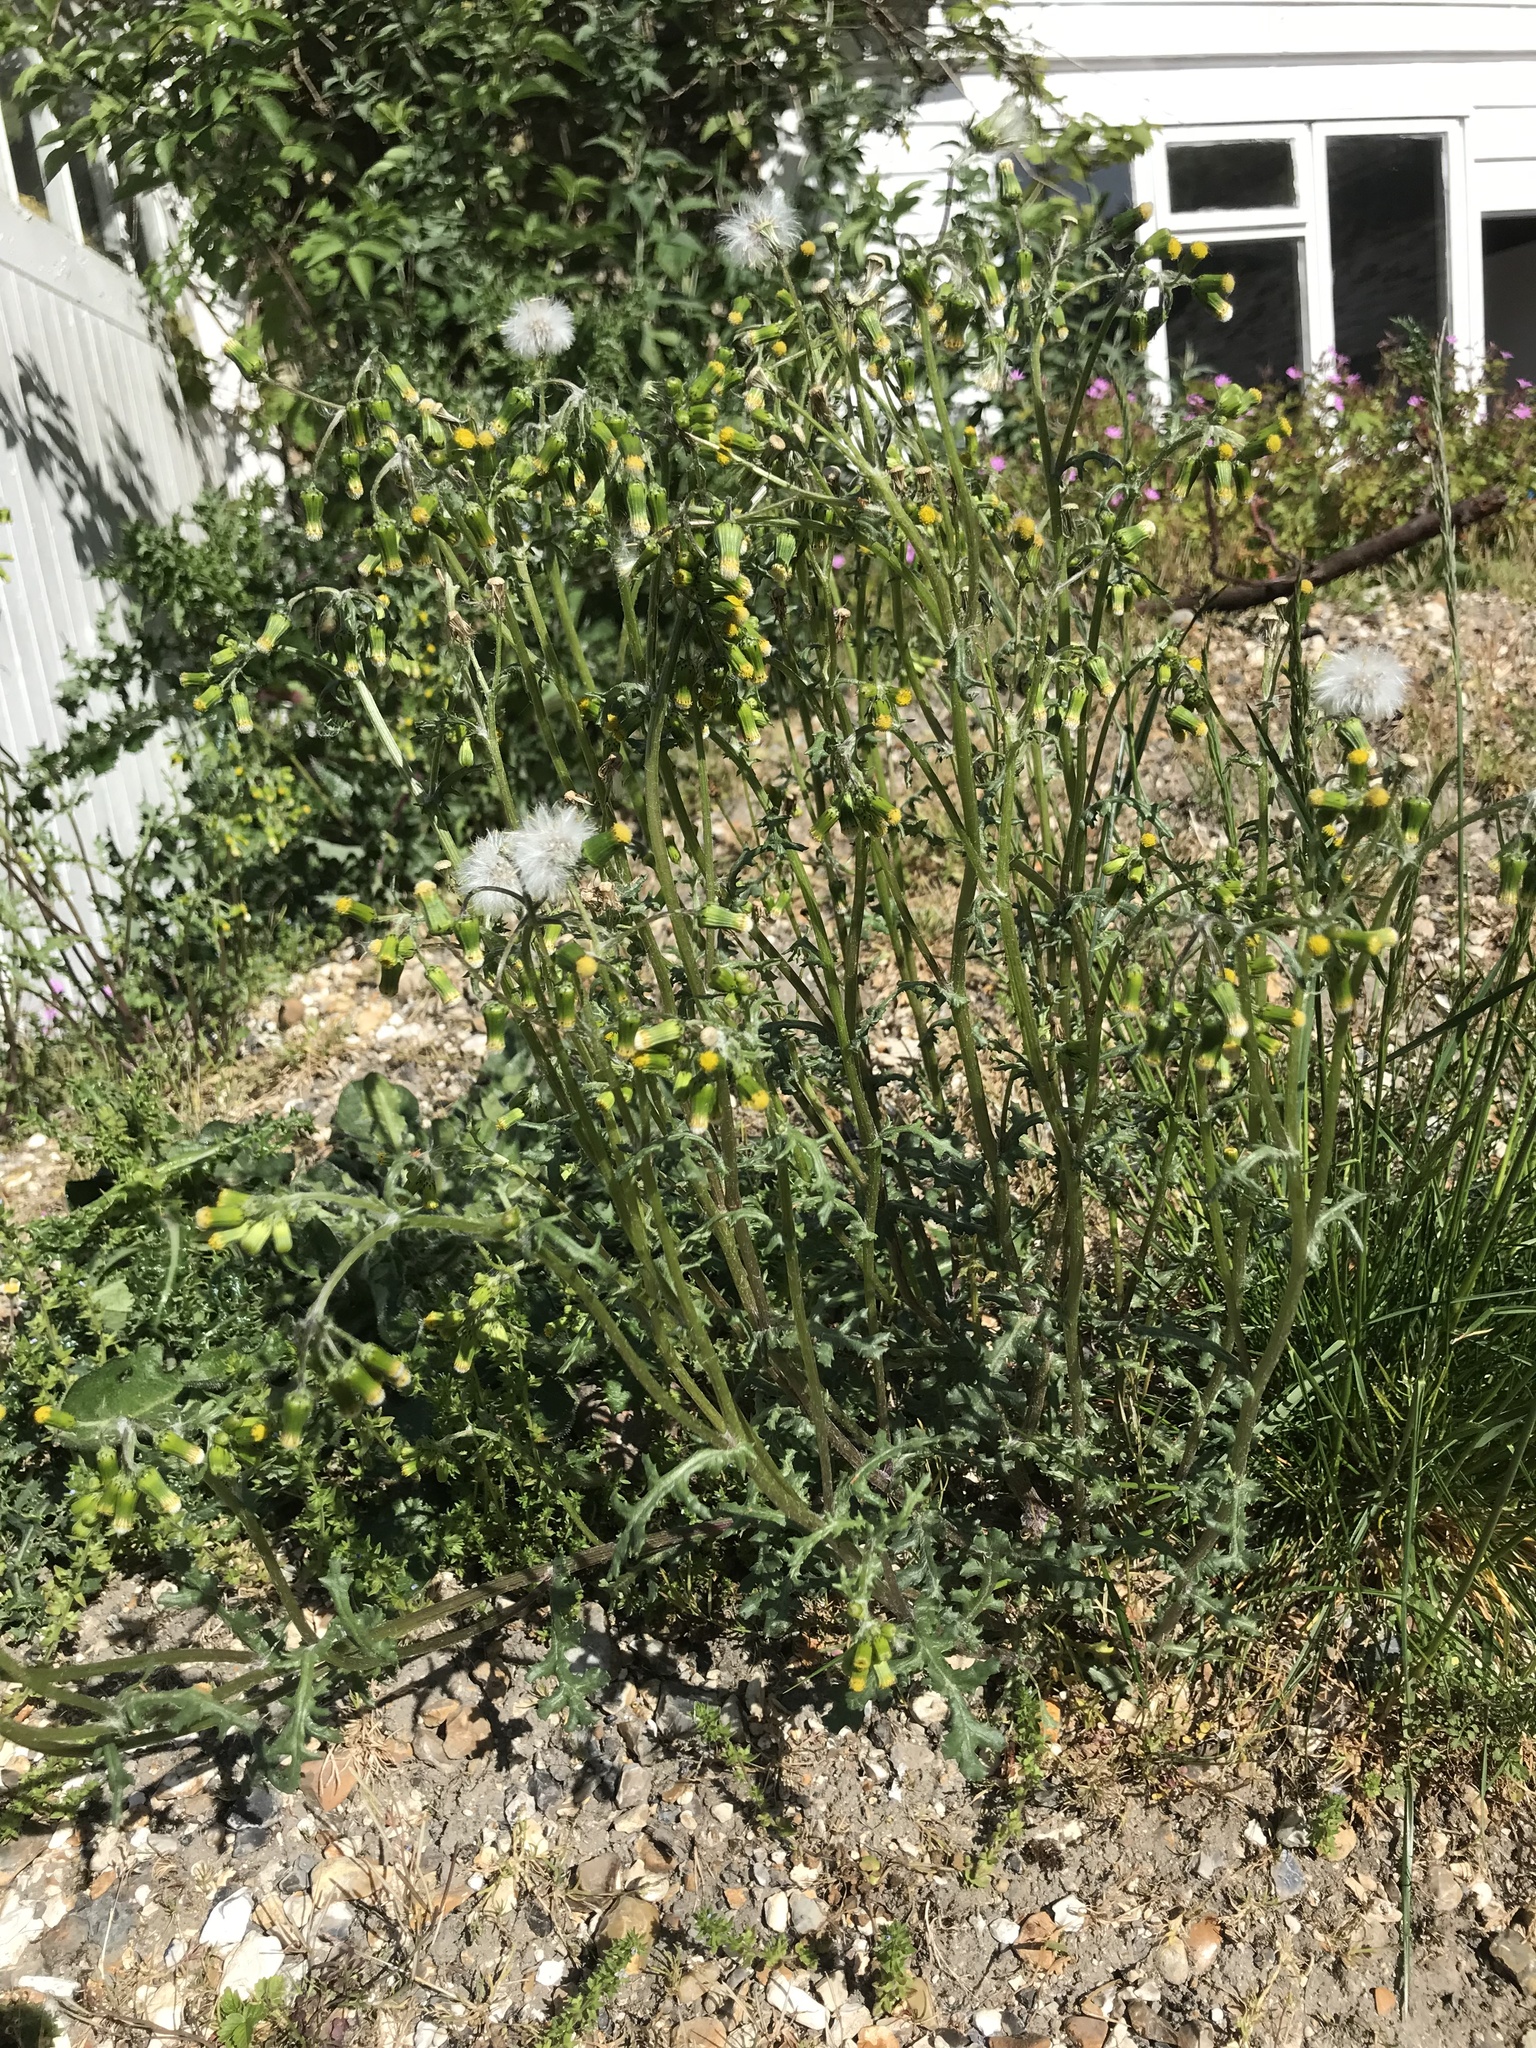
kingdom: Plantae
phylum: Tracheophyta
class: Magnoliopsida
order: Asterales
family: Asteraceae
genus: Senecio
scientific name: Senecio vulgaris
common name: Old-man-in-the-spring
